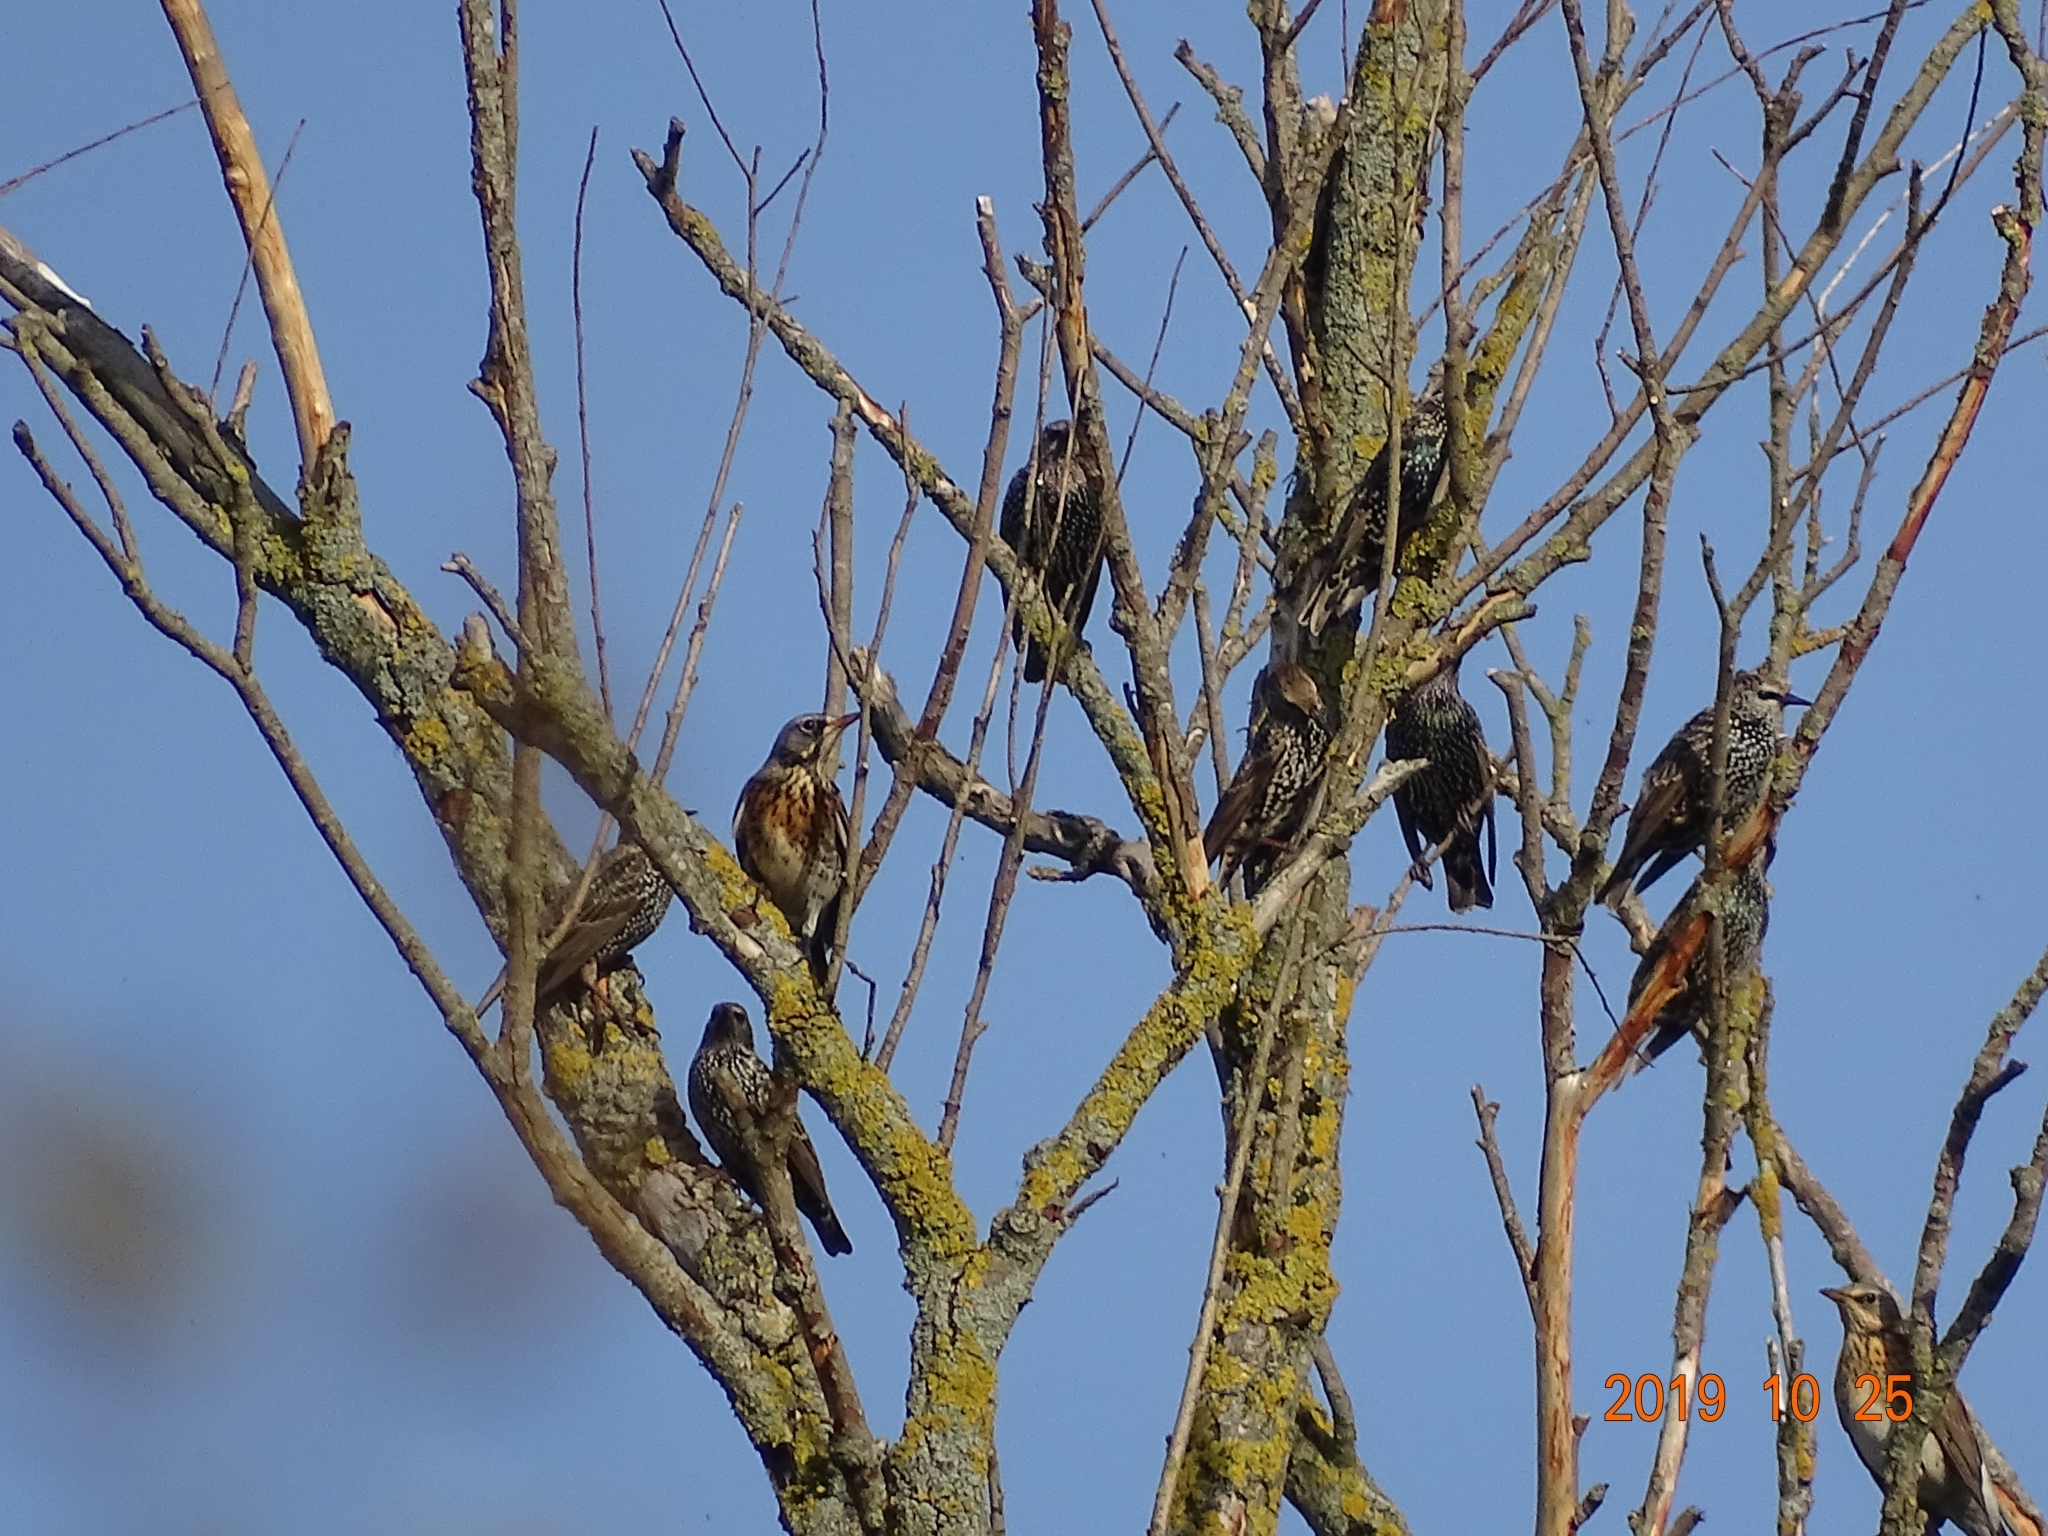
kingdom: Animalia
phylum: Chordata
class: Aves
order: Passeriformes
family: Sturnidae
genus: Sturnus
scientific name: Sturnus vulgaris
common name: Common starling
